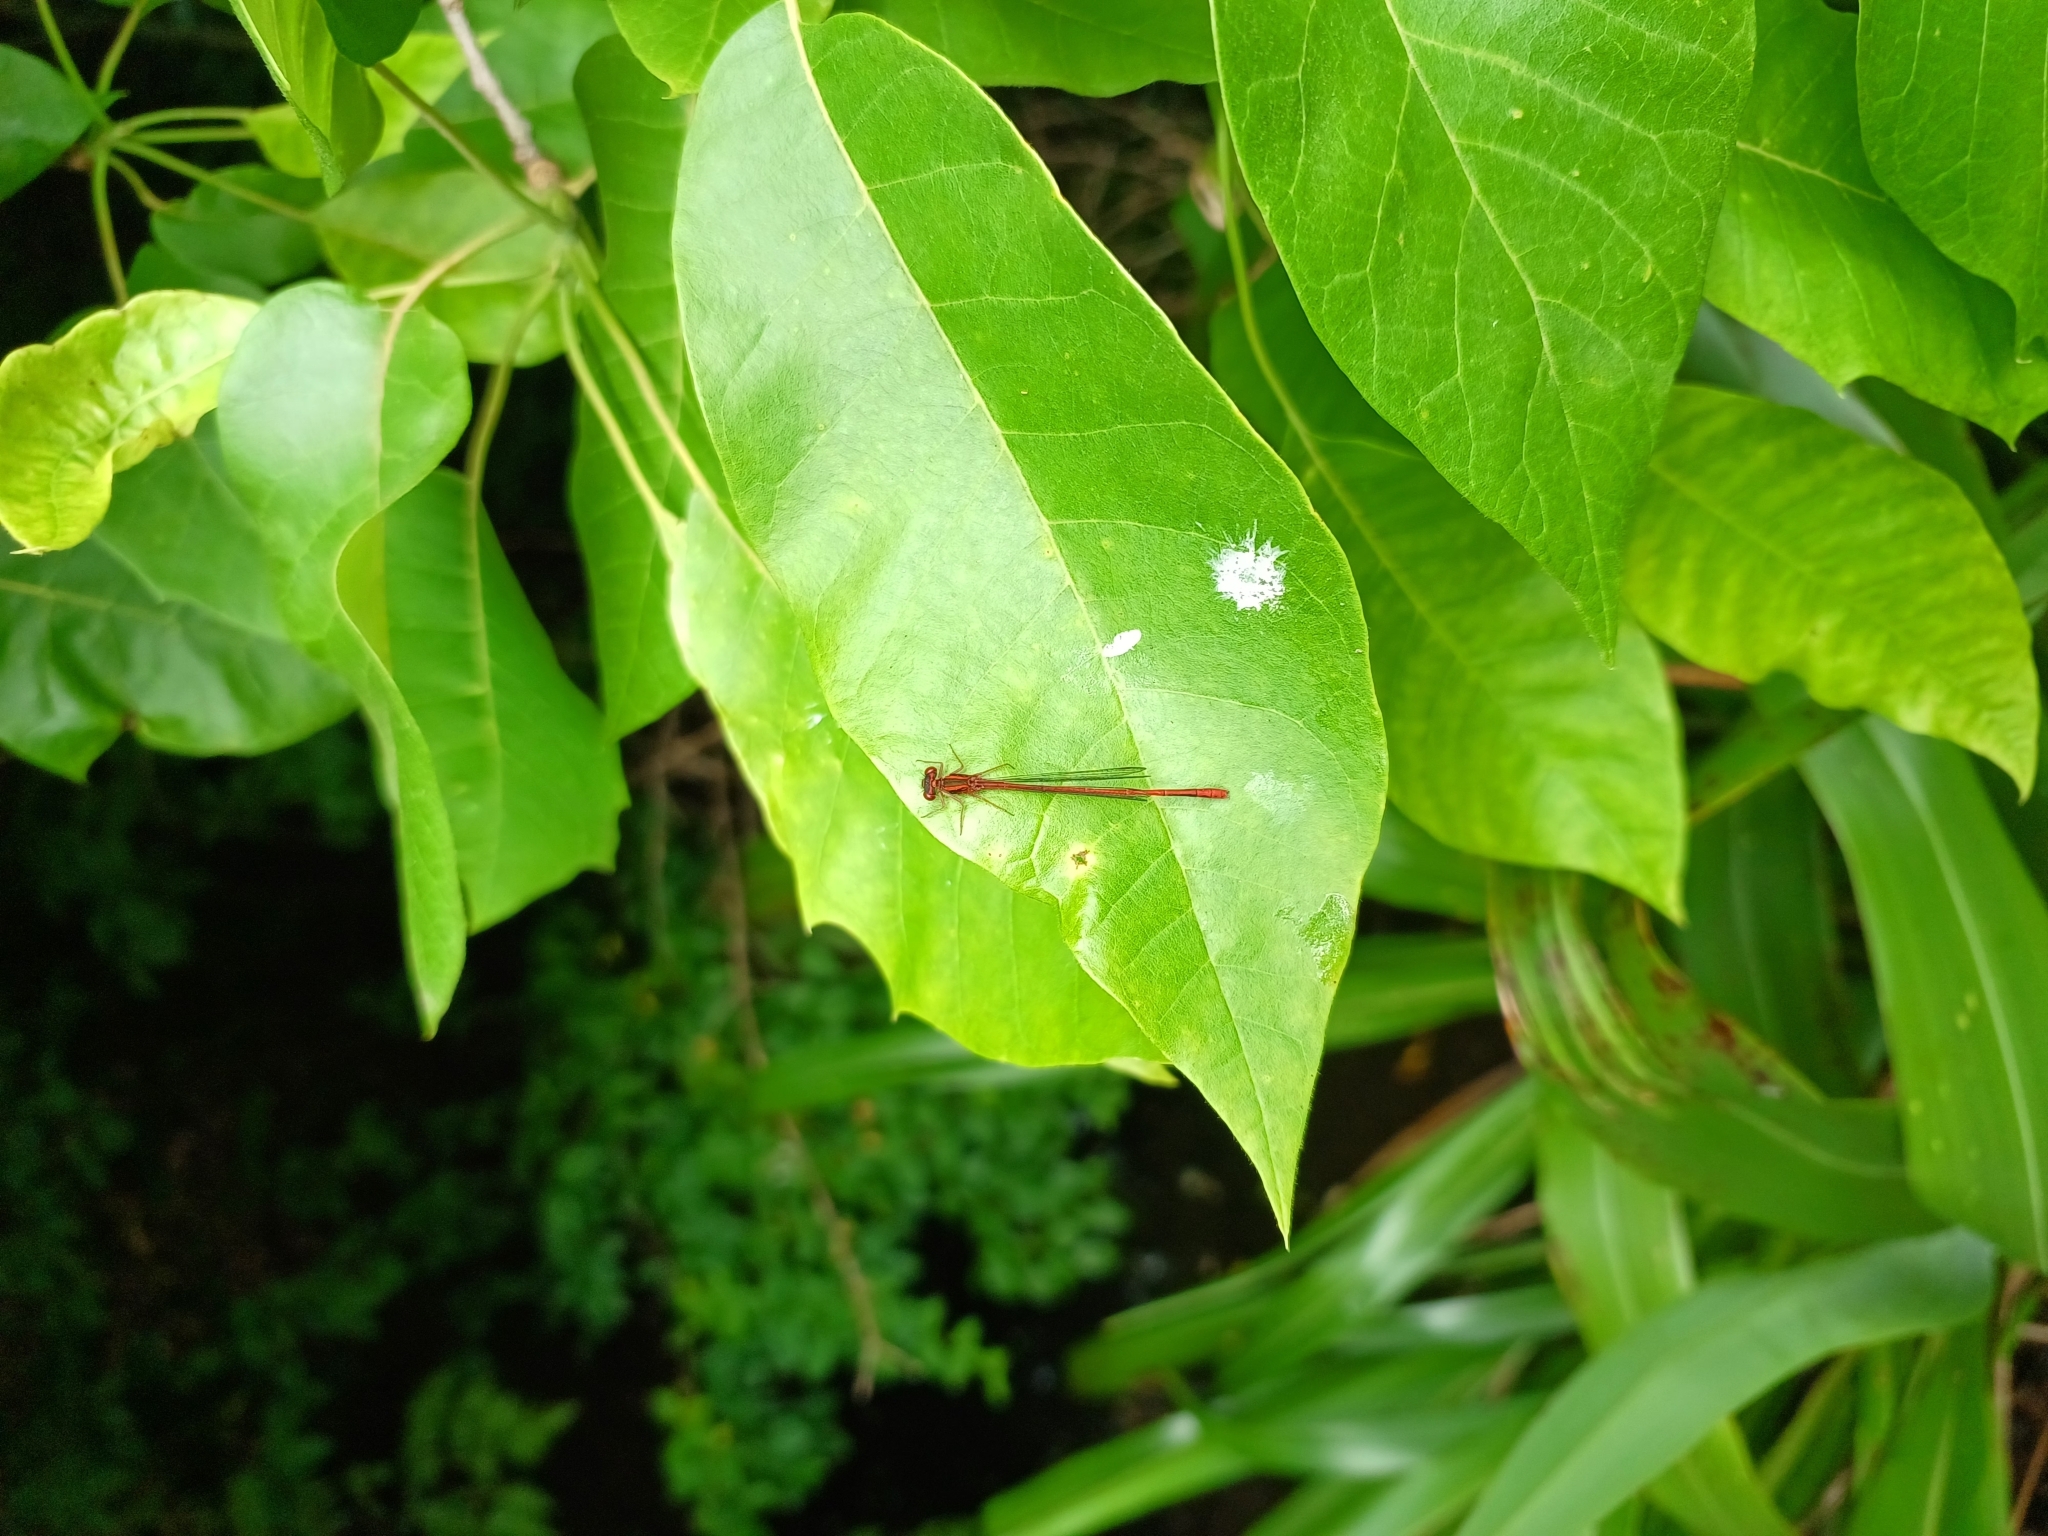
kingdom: Animalia
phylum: Arthropoda
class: Insecta
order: Odonata
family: Coenagrionidae
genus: Xanthocnemis
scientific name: Xanthocnemis zealandica
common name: Common redcoat damselfly
